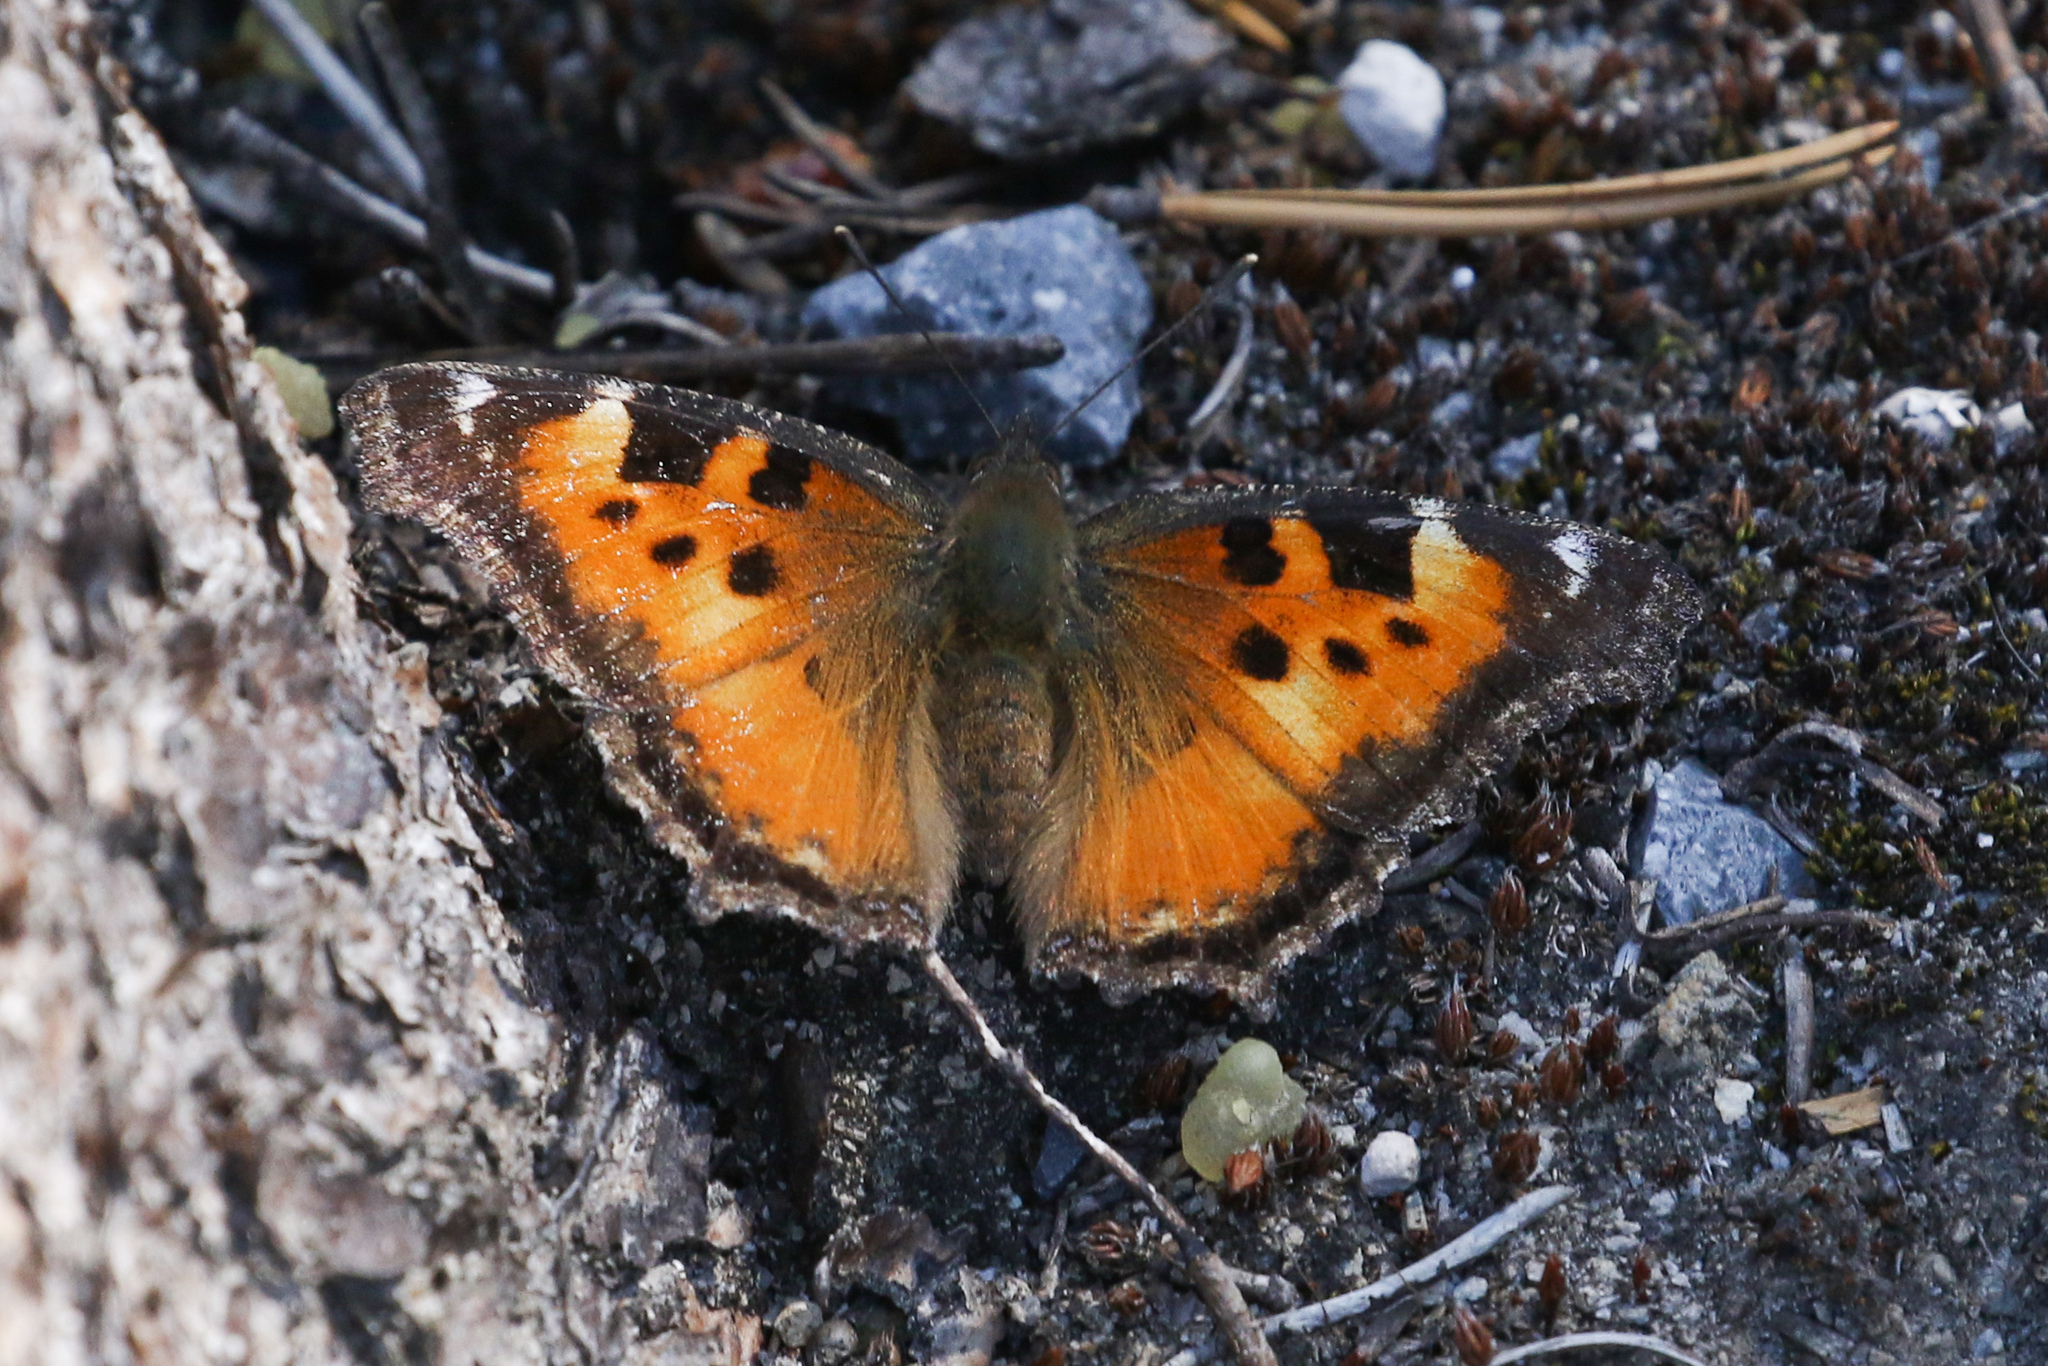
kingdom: Animalia
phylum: Arthropoda
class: Insecta
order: Lepidoptera
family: Nymphalidae
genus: Nymphalis
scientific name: Nymphalis californica
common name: California tortoiseshell
